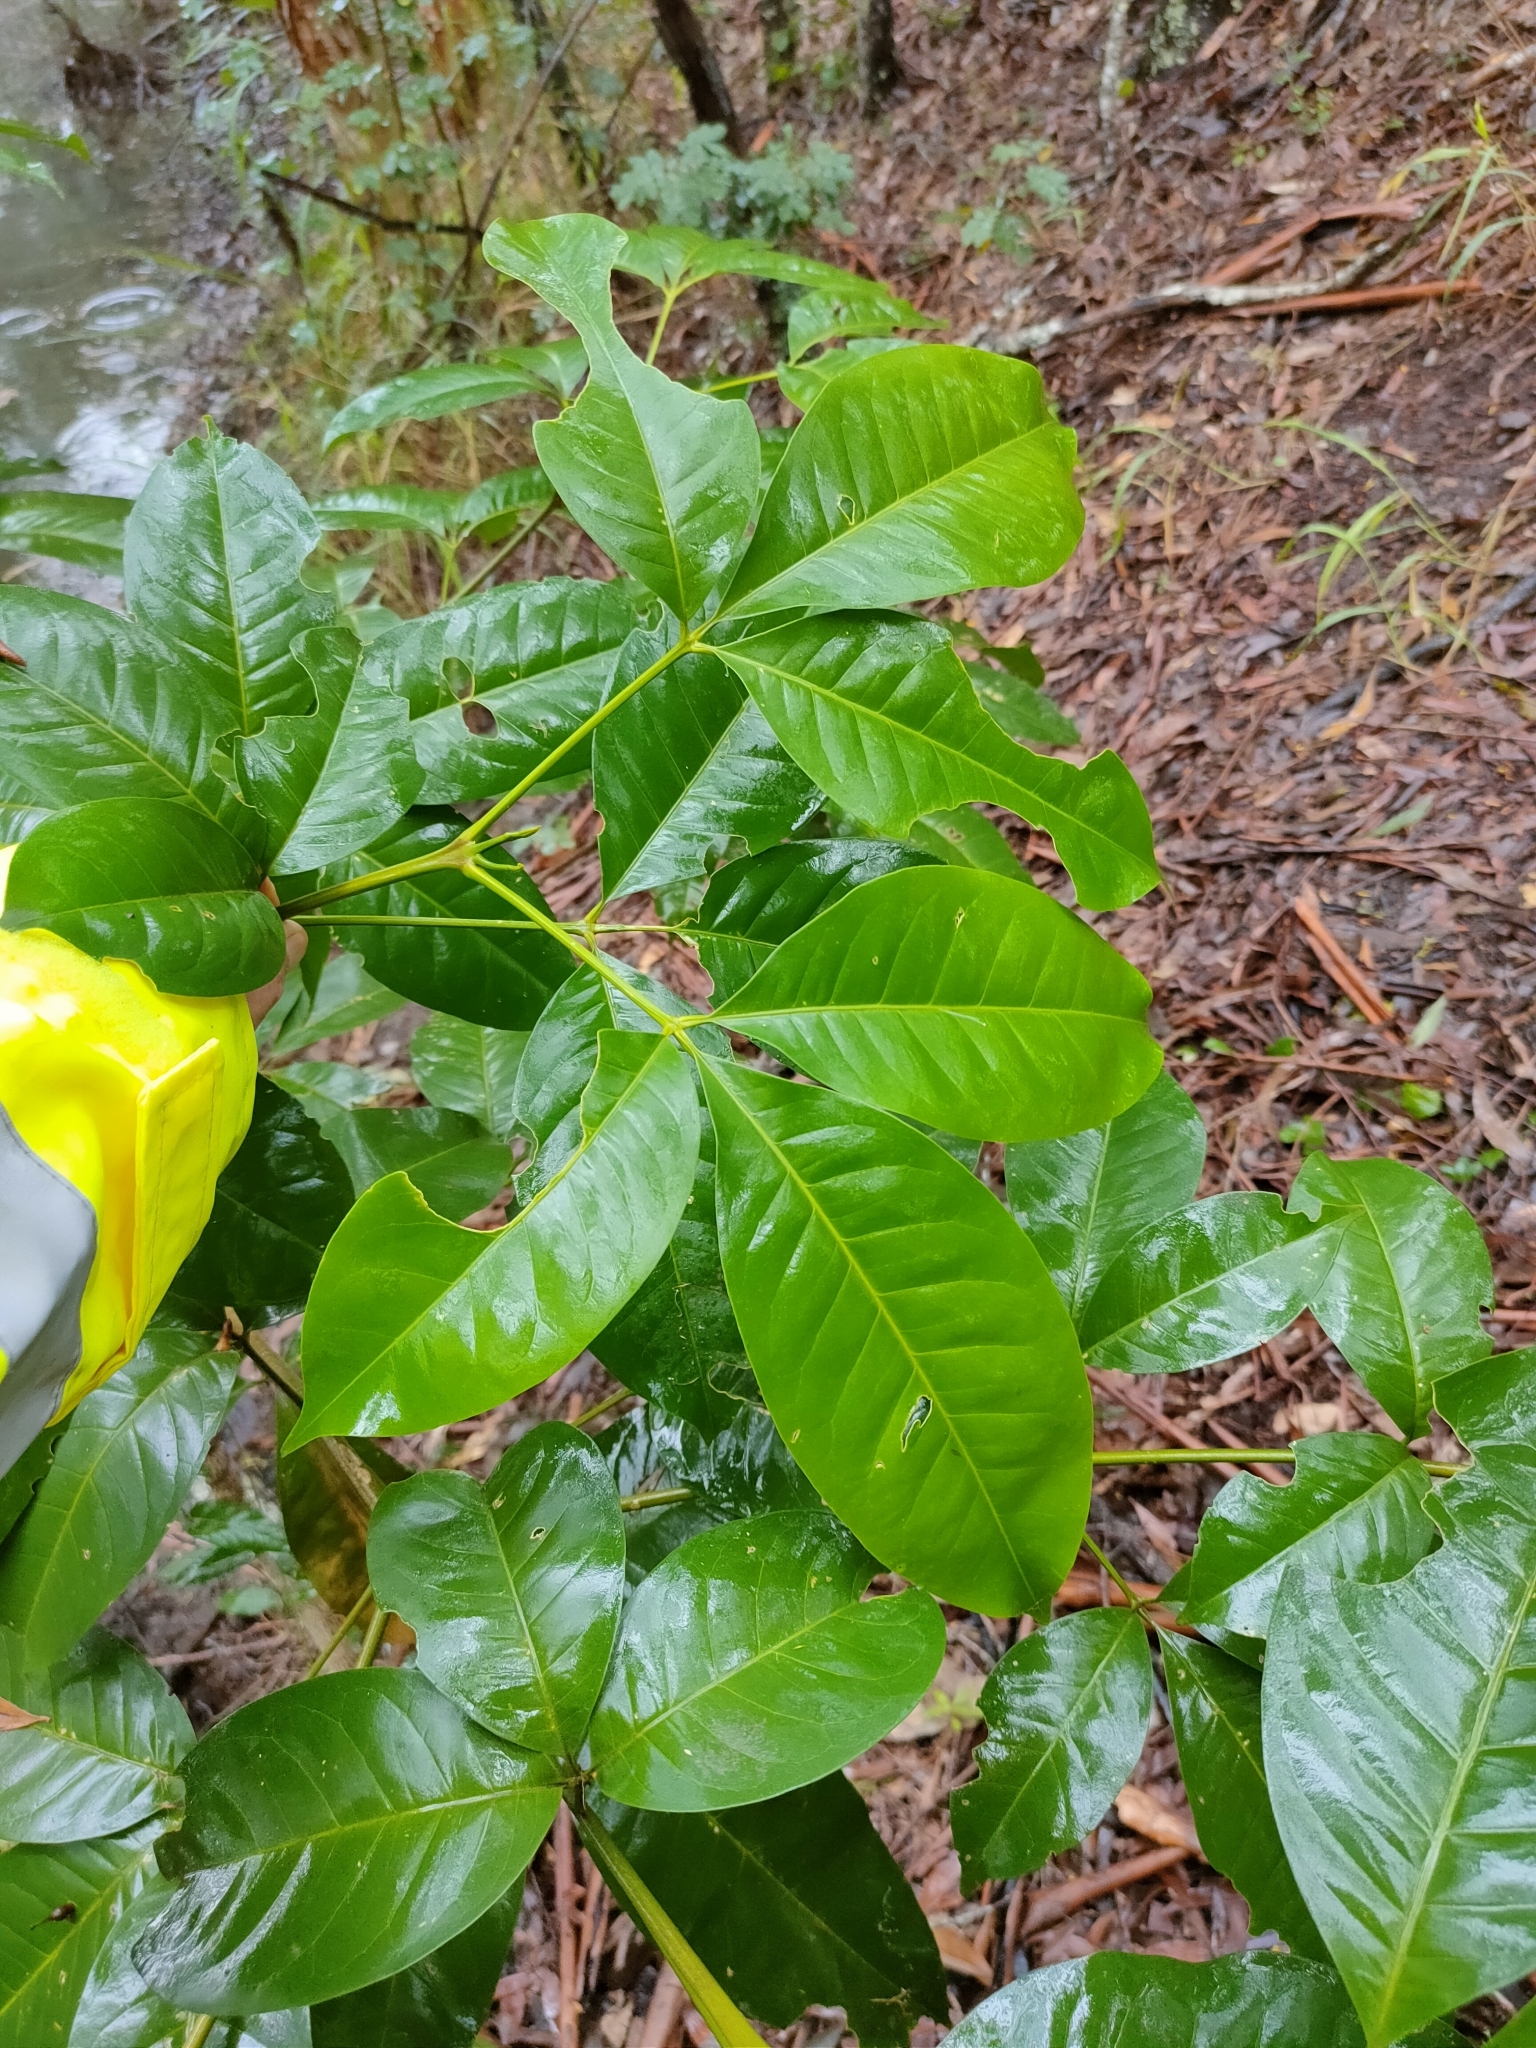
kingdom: Plantae
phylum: Tracheophyta
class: Magnoliopsida
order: Sapindales
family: Rutaceae
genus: Melicope
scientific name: Melicope elleryana
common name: Pink euodia
